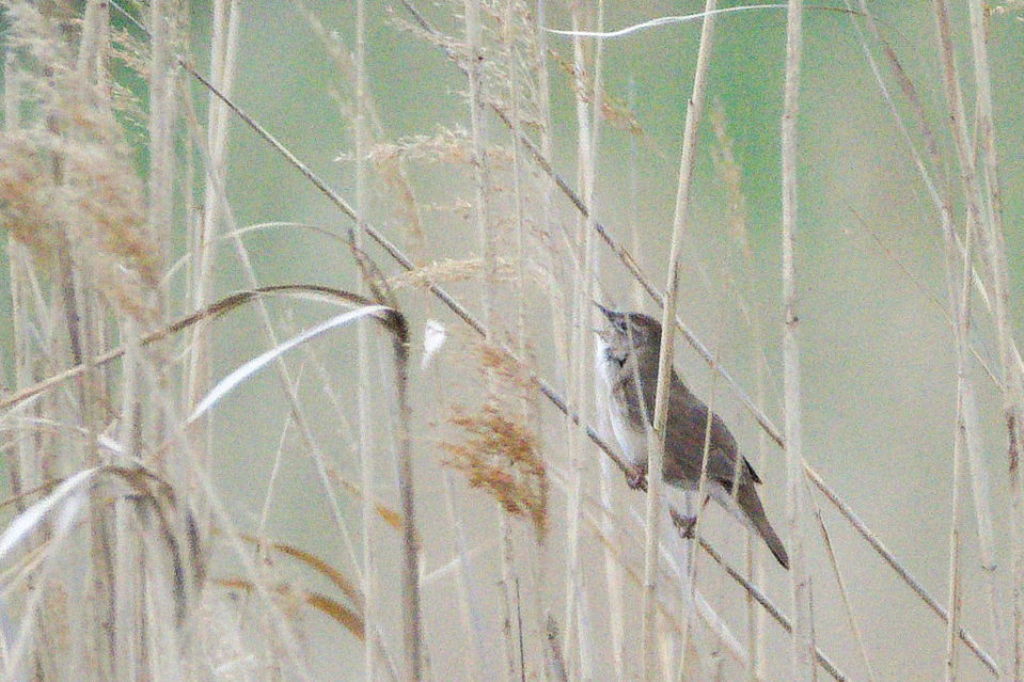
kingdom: Animalia
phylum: Chordata
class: Aves
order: Passeriformes
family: Locustellidae
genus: Locustella
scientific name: Locustella luscinioides
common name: Savi's warbler
